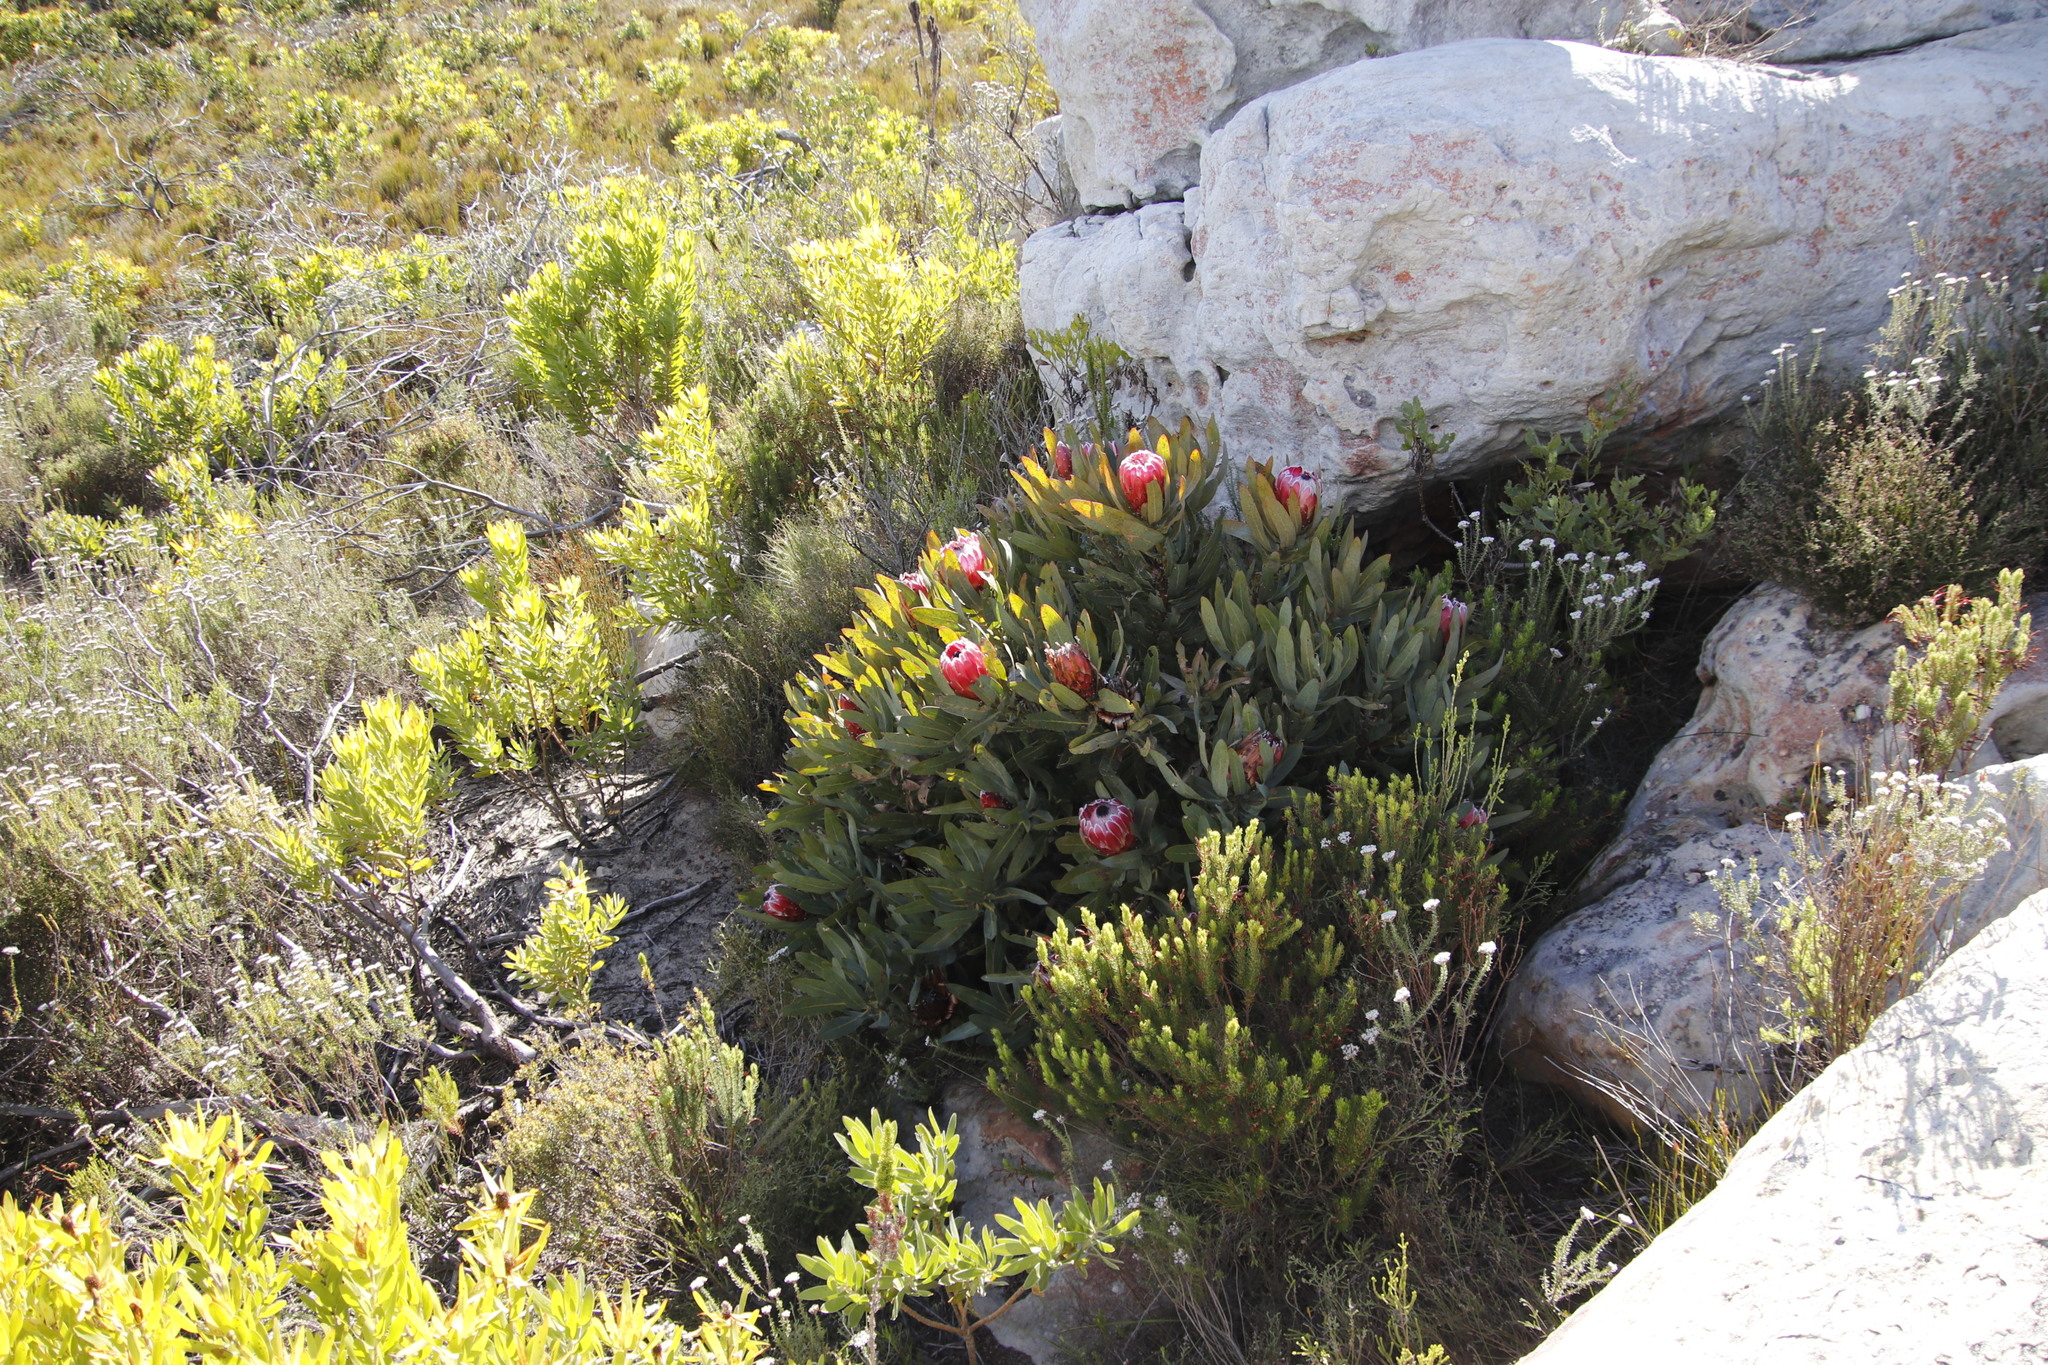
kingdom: Plantae
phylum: Tracheophyta
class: Magnoliopsida
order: Proteales
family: Proteaceae
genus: Protea
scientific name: Protea
